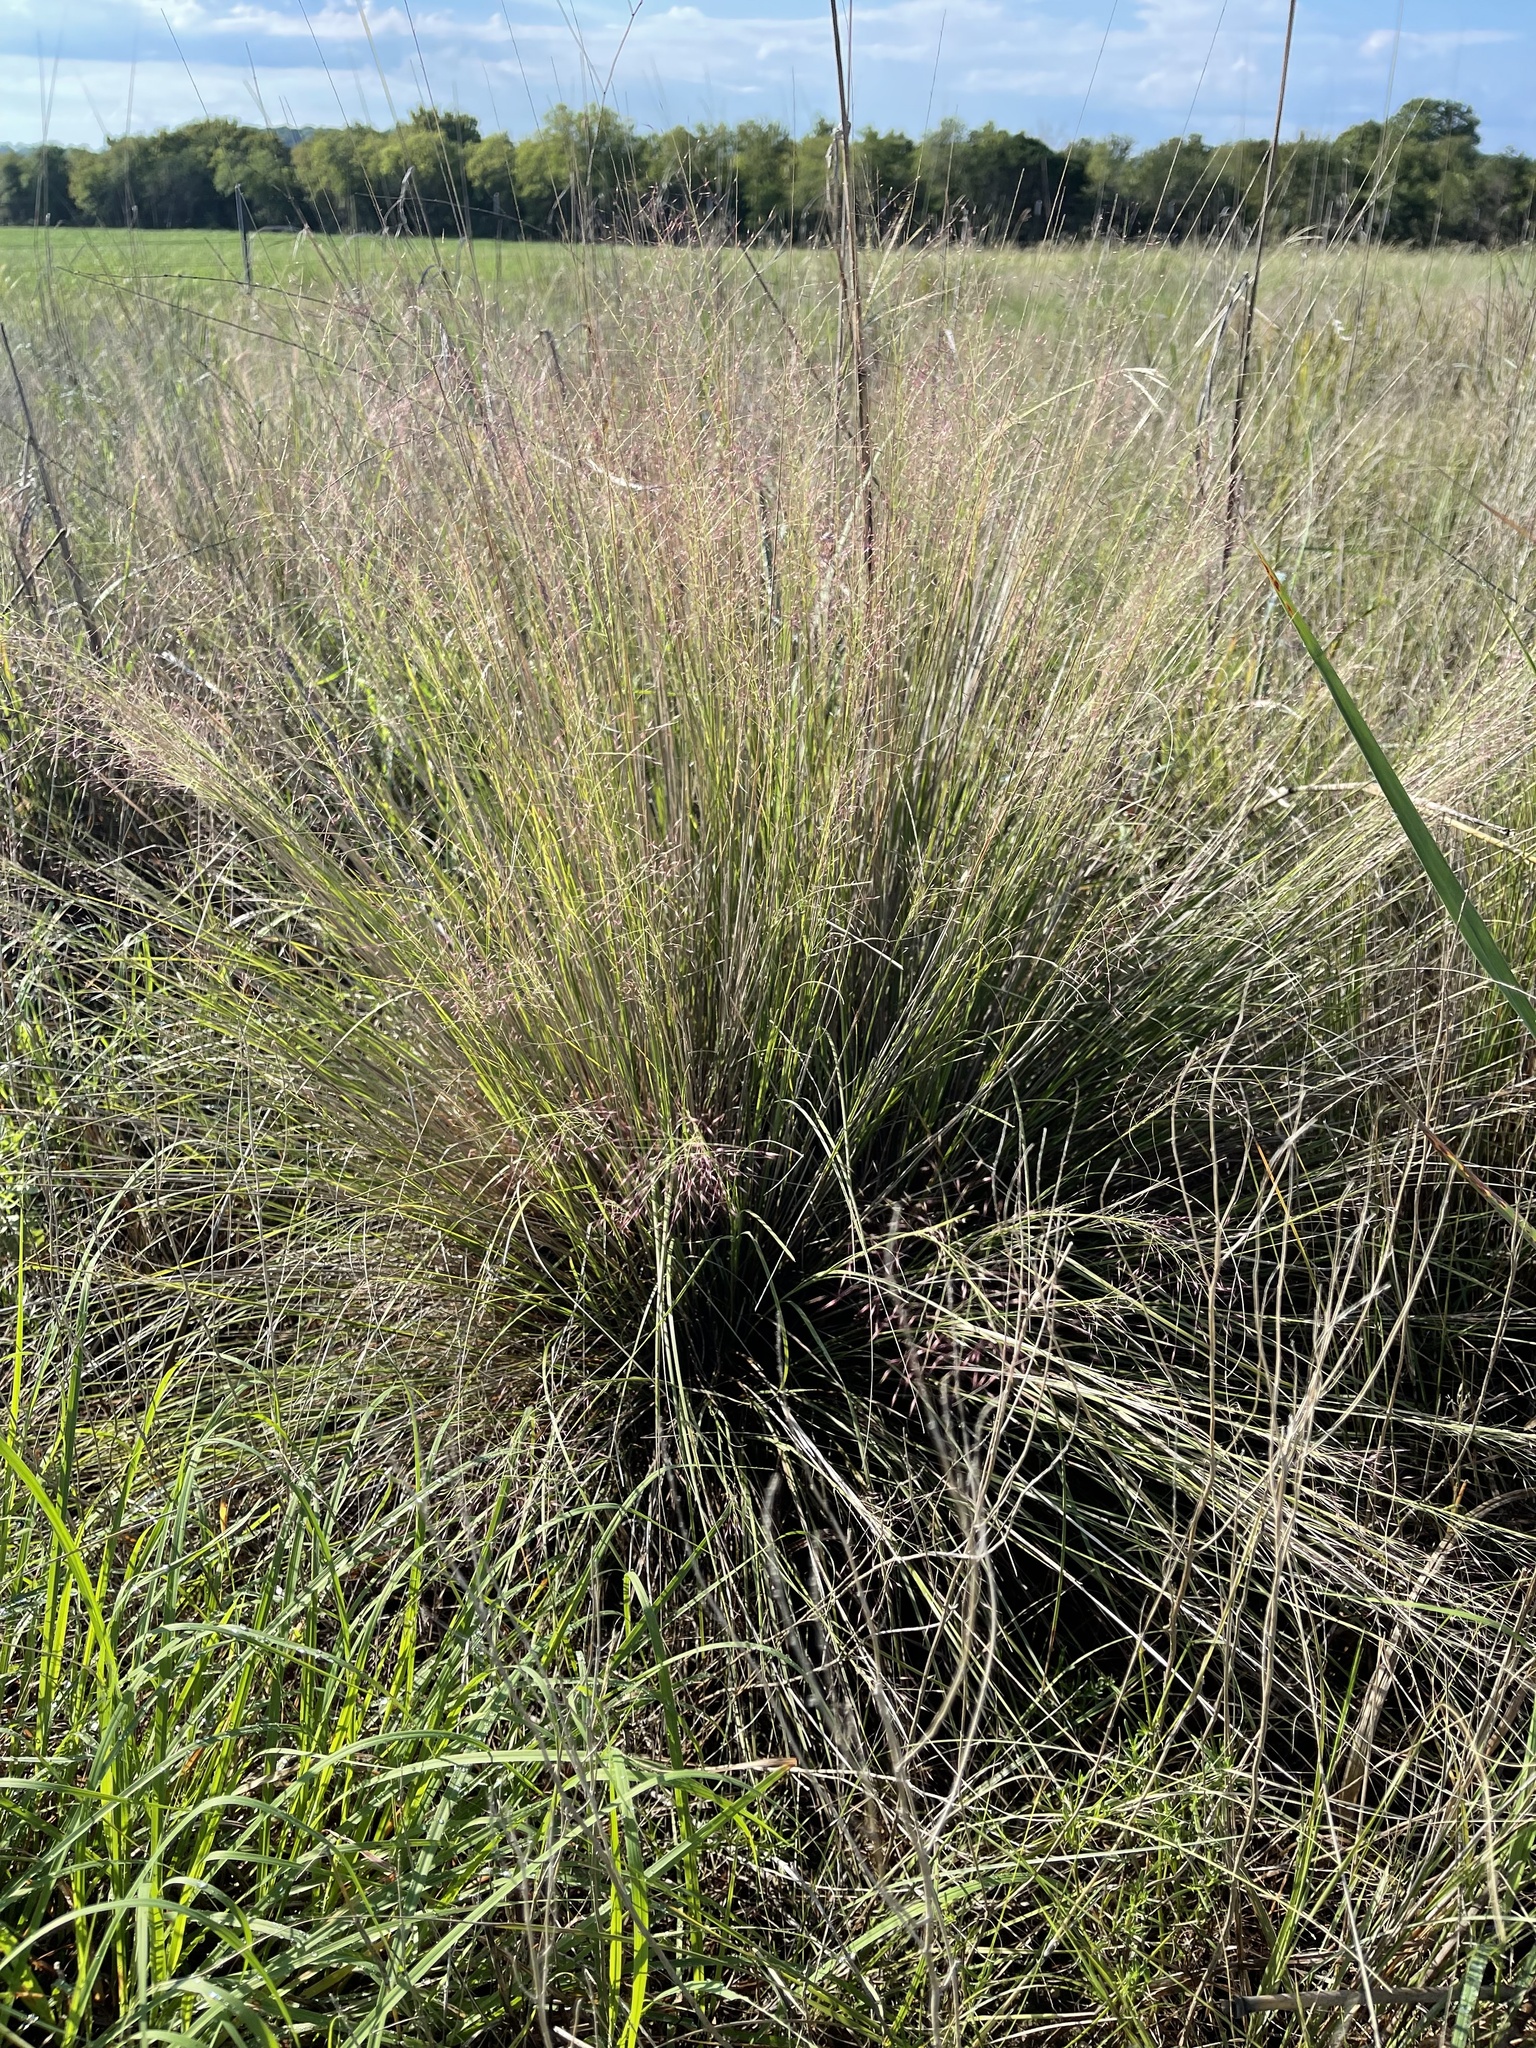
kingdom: Plantae
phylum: Tracheophyta
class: Liliopsida
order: Poales
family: Poaceae
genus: Muhlenbergia
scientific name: Muhlenbergia reverchonii
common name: Seep muhly
